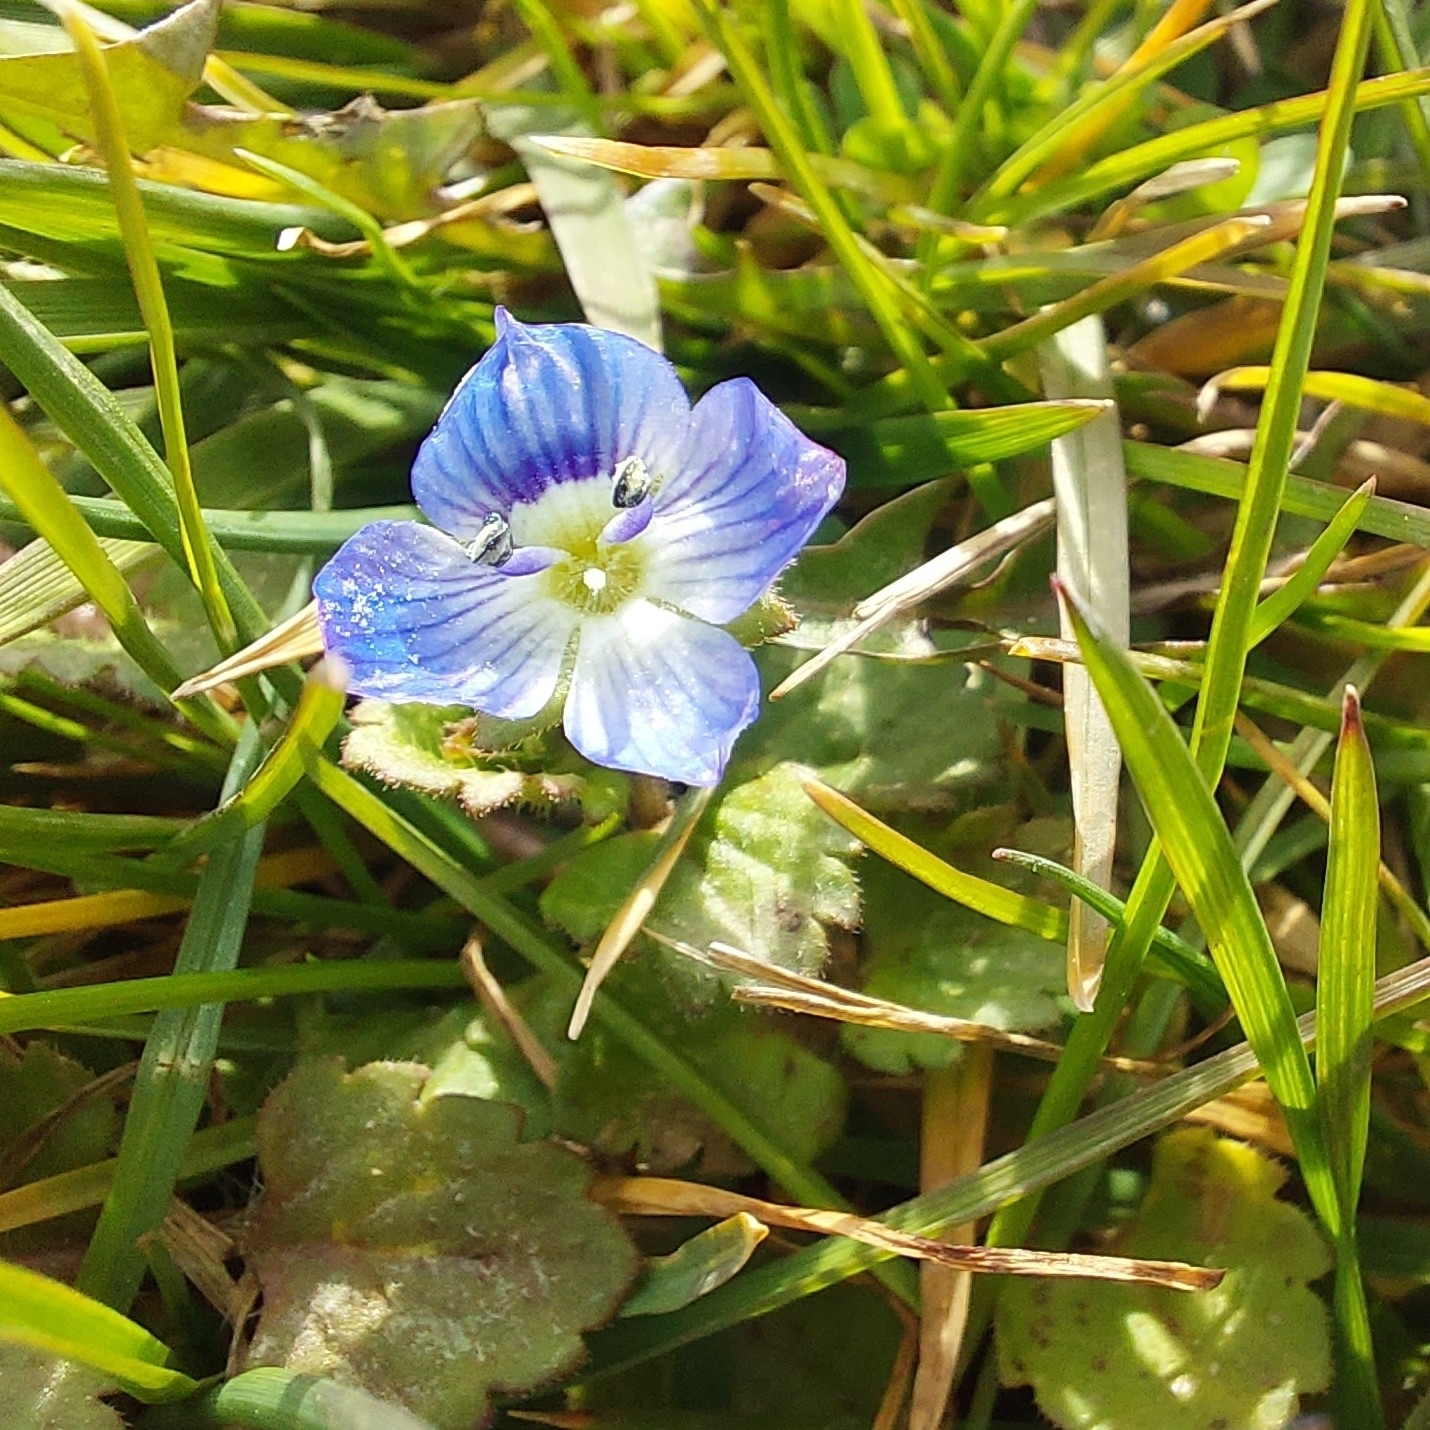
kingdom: Plantae
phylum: Tracheophyta
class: Magnoliopsida
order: Lamiales
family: Plantaginaceae
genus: Veronica
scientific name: Veronica persica
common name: Common field-speedwell
